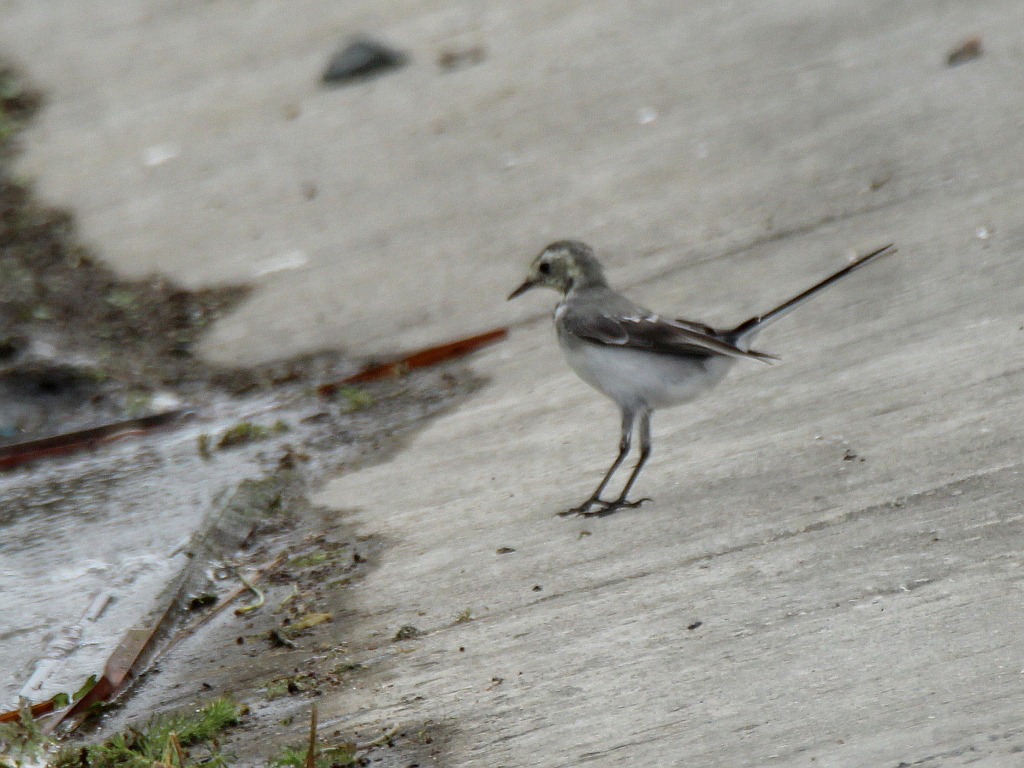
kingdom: Animalia
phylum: Chordata
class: Aves
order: Passeriformes
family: Motacillidae
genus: Motacilla
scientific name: Motacilla alba
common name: White wagtail
